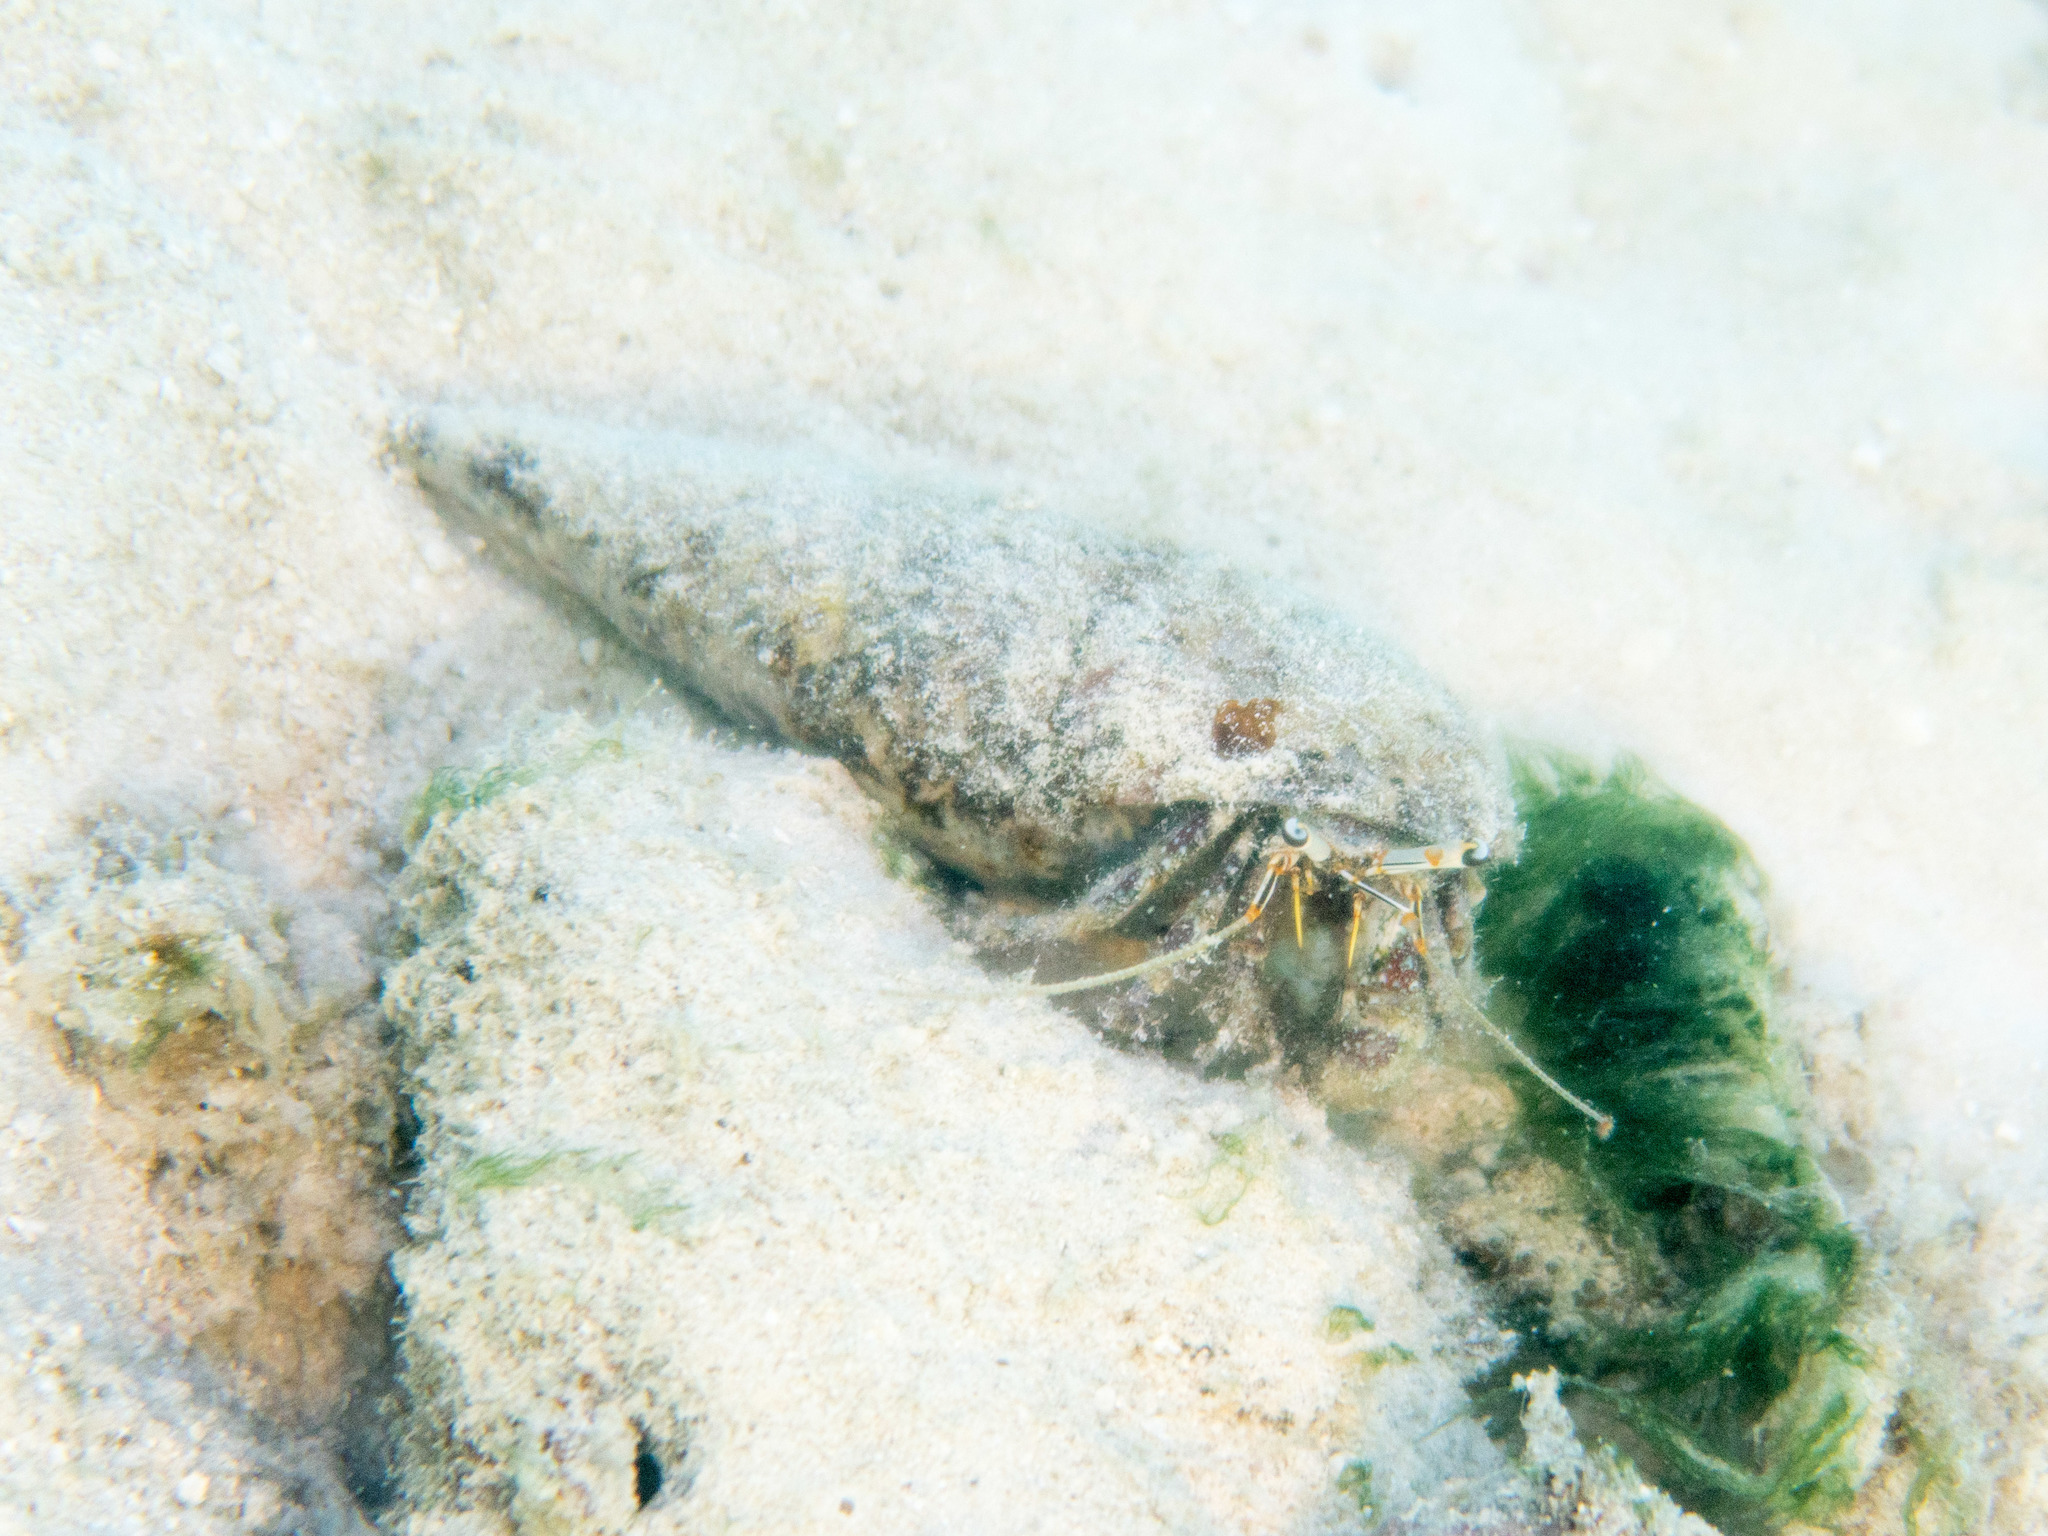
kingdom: Animalia
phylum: Arthropoda
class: Malacostraca
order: Decapoda
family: Diogenidae
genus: Dardanus
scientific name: Dardanus scutellatus
